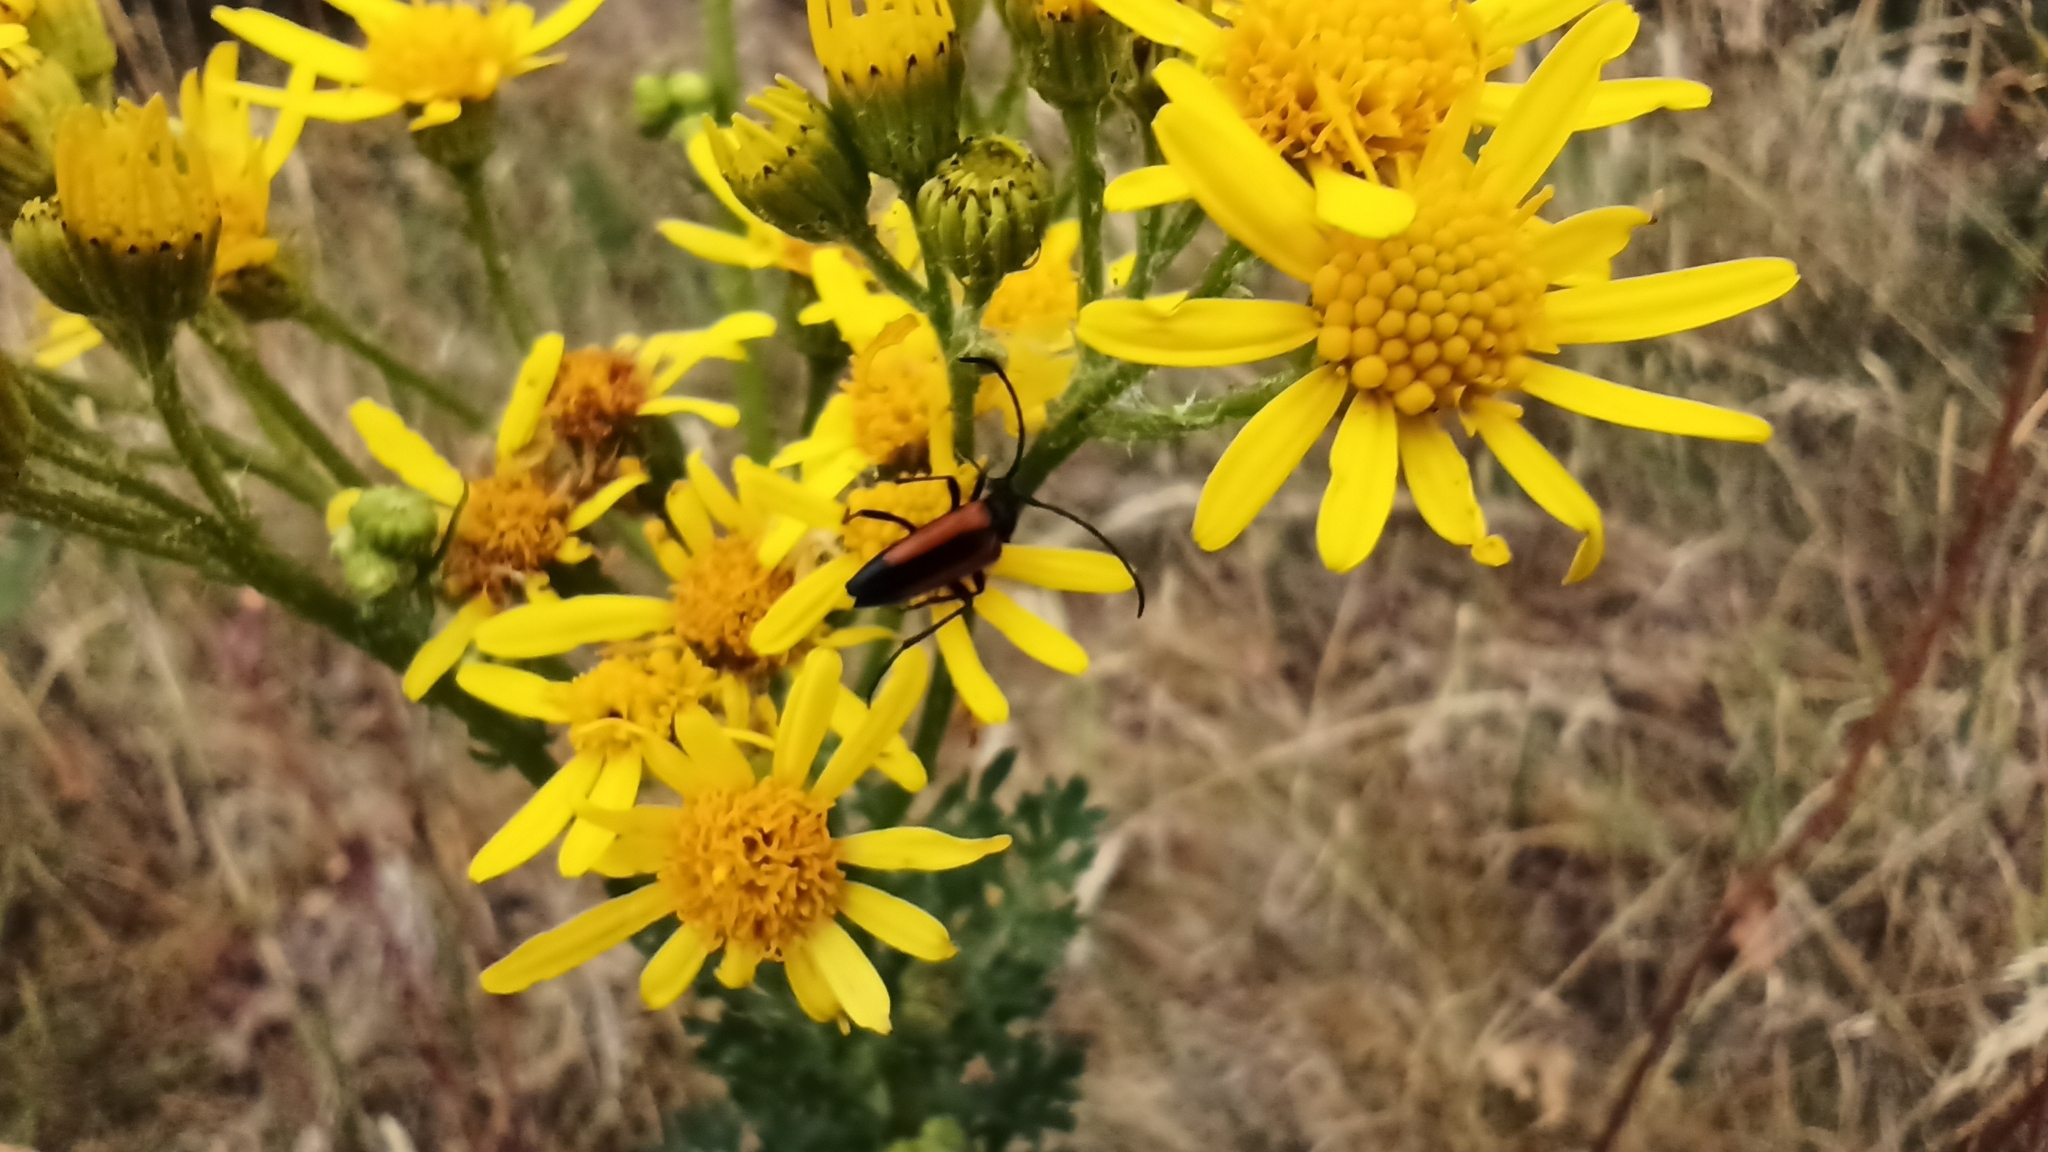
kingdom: Animalia
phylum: Arthropoda
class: Insecta
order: Coleoptera
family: Cerambycidae
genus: Stenurella
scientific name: Stenurella melanura
